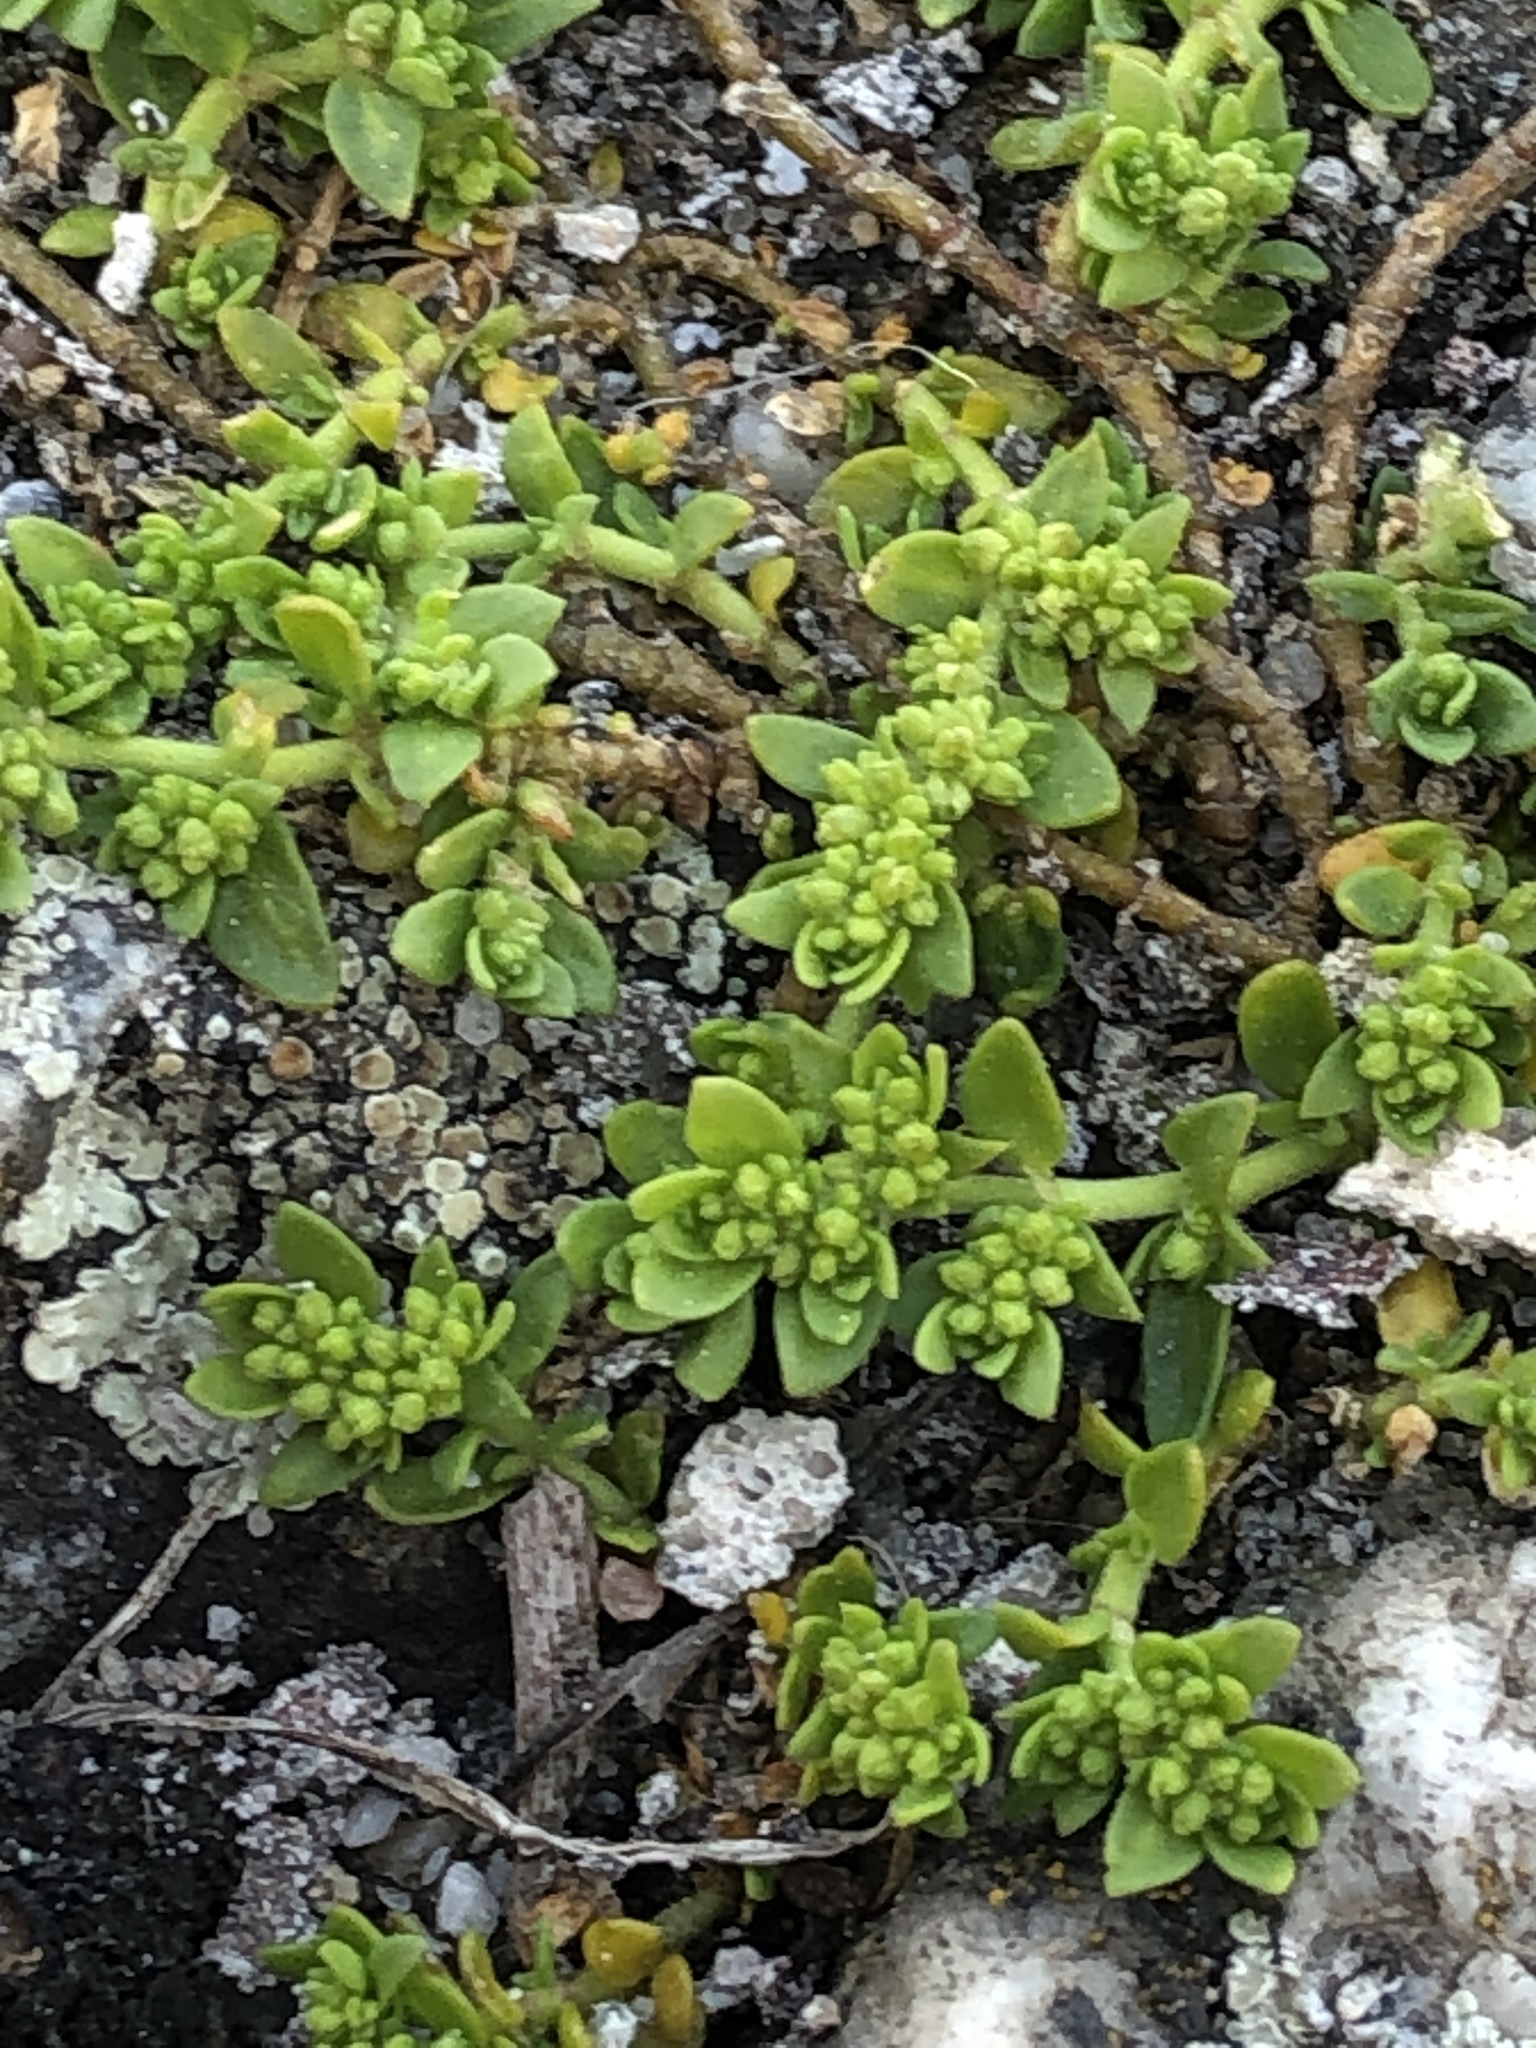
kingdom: Plantae
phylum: Tracheophyta
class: Magnoliopsida
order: Caryophyllales
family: Caryophyllaceae
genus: Herniaria
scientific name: Herniaria glabra
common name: Smooth rupturewort
